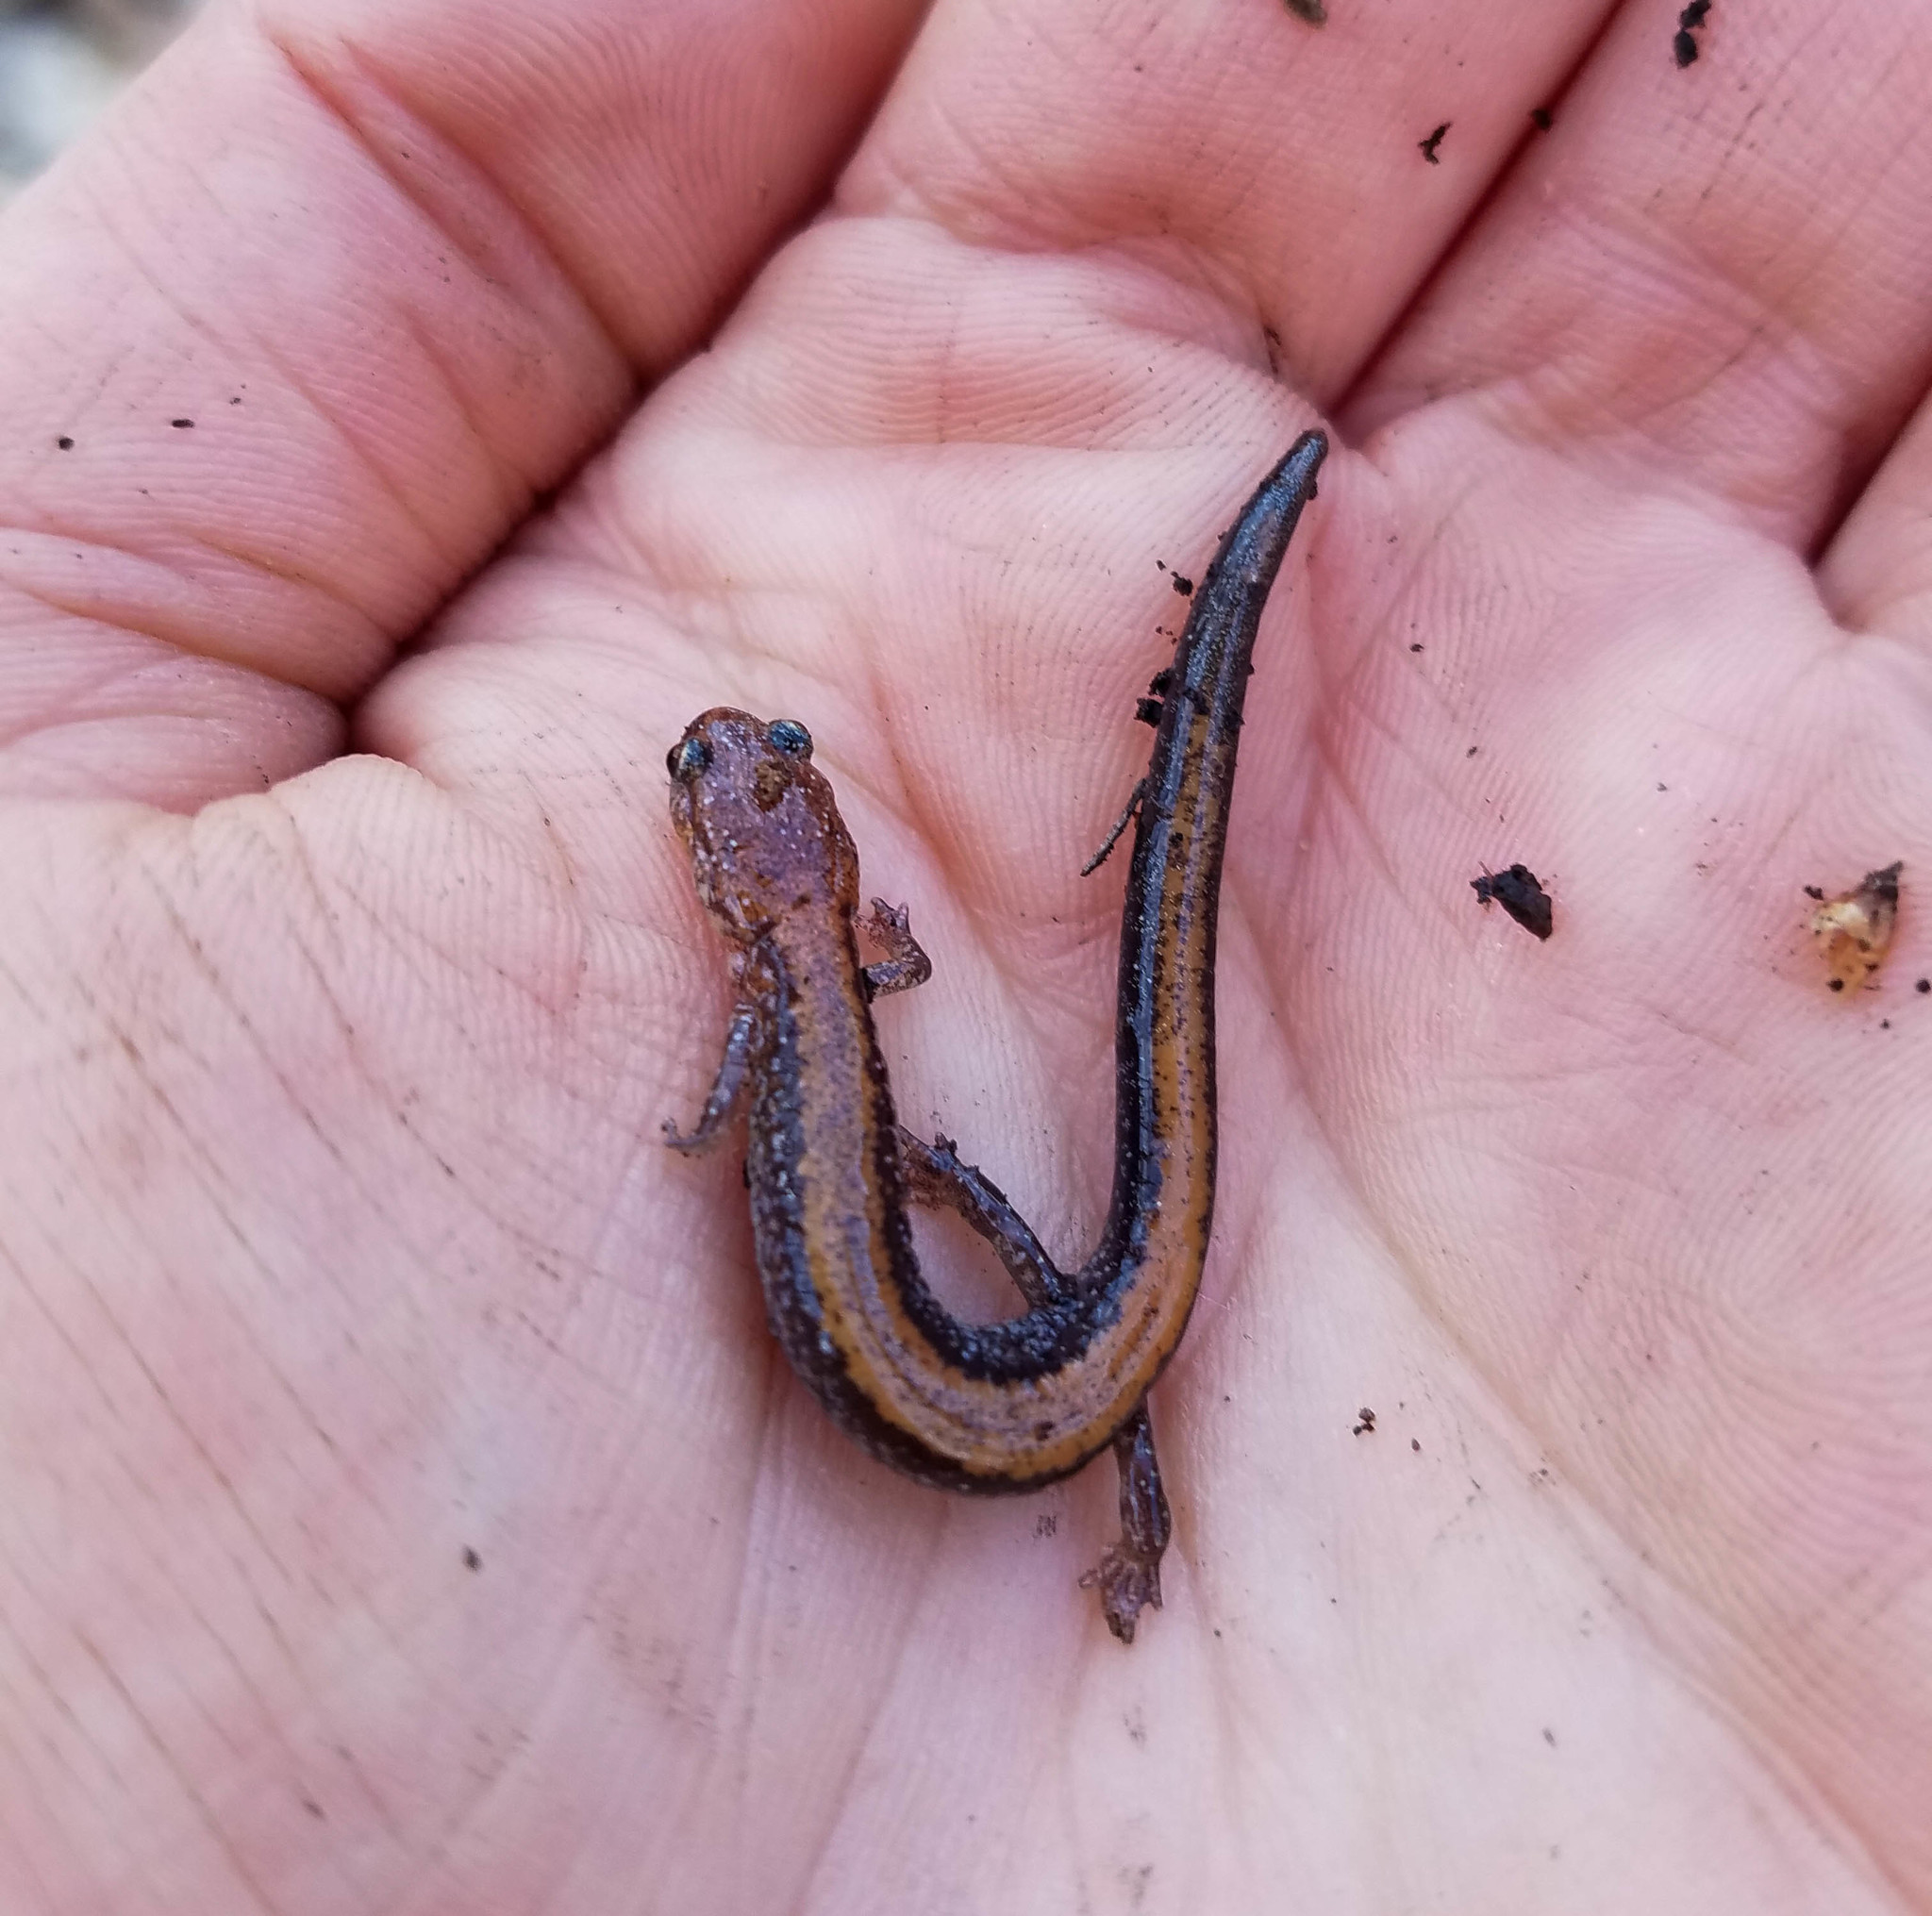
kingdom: Animalia
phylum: Chordata
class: Amphibia
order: Caudata
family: Plethodontidae
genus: Plethodon
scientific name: Plethodon cinereus
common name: Redback salamander
